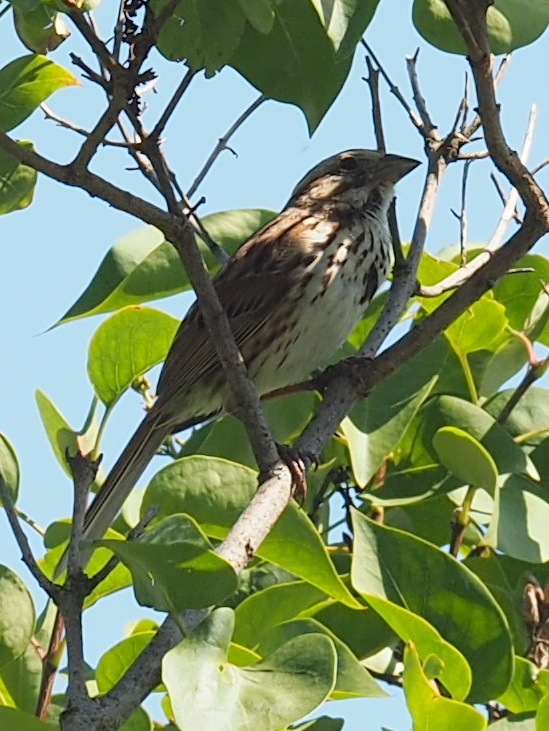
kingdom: Animalia
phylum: Chordata
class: Aves
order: Passeriformes
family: Passerellidae
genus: Melospiza
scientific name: Melospiza melodia
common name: Song sparrow
